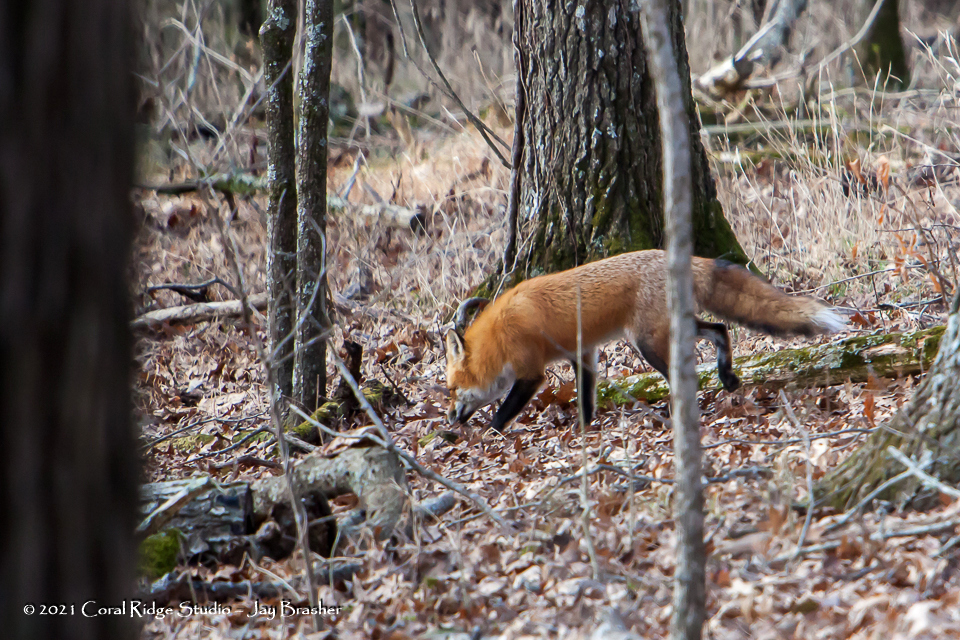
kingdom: Animalia
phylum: Chordata
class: Mammalia
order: Carnivora
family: Canidae
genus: Vulpes
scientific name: Vulpes vulpes
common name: Red fox
